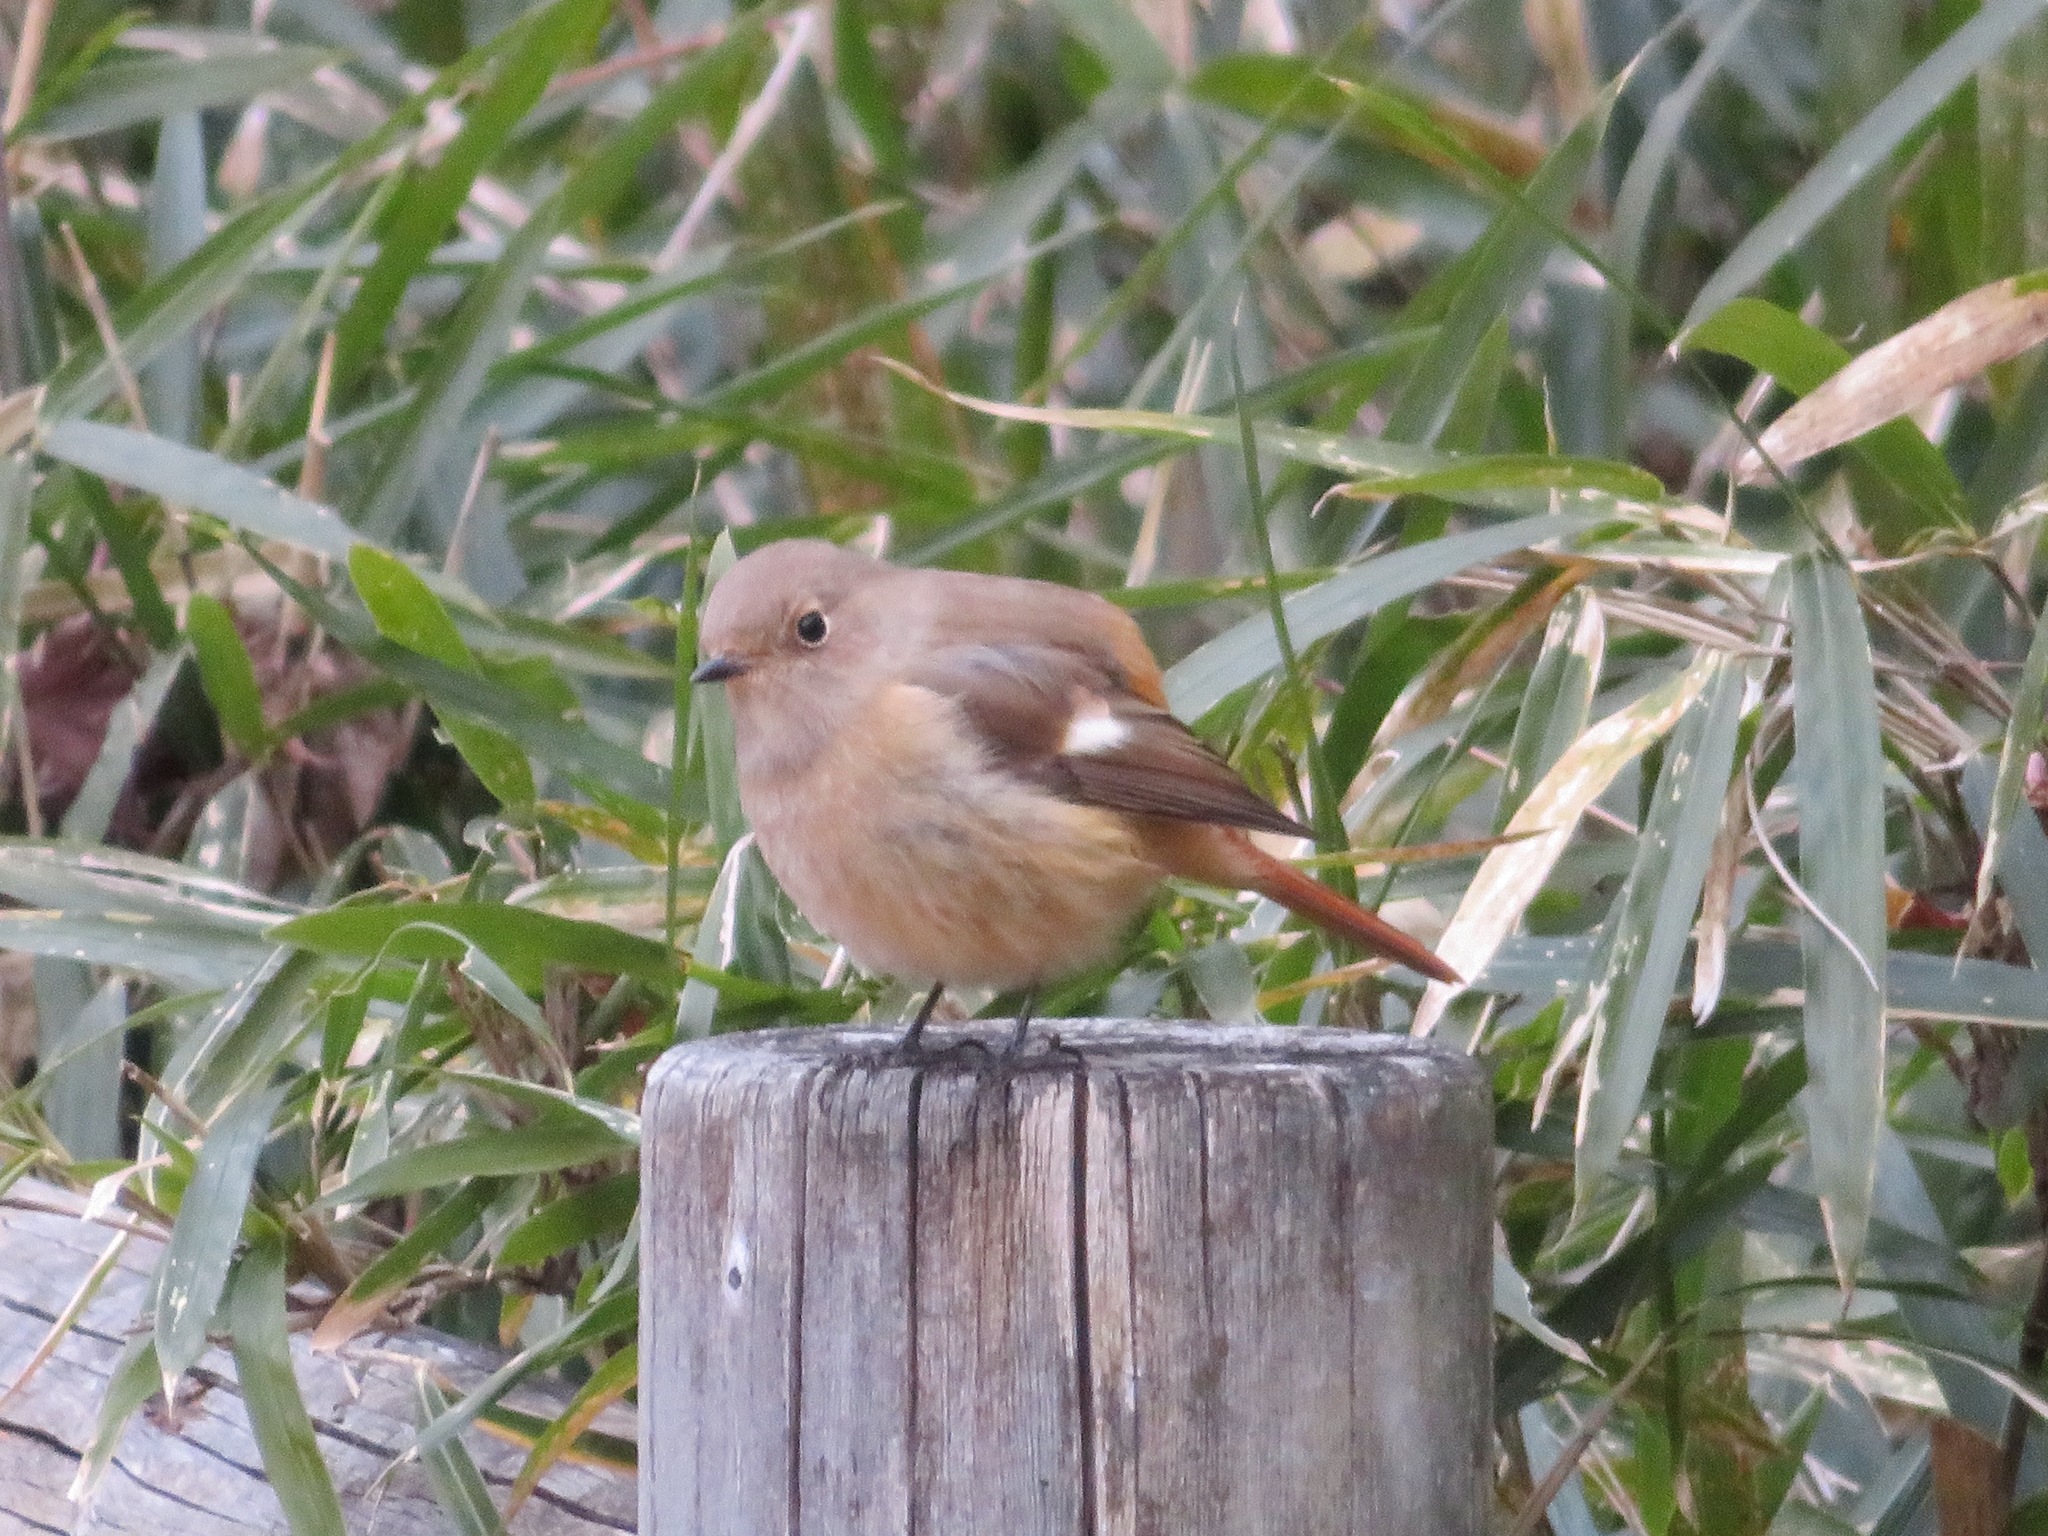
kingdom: Animalia
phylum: Chordata
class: Aves
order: Passeriformes
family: Muscicapidae
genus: Phoenicurus
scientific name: Phoenicurus auroreus
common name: Daurian redstart
